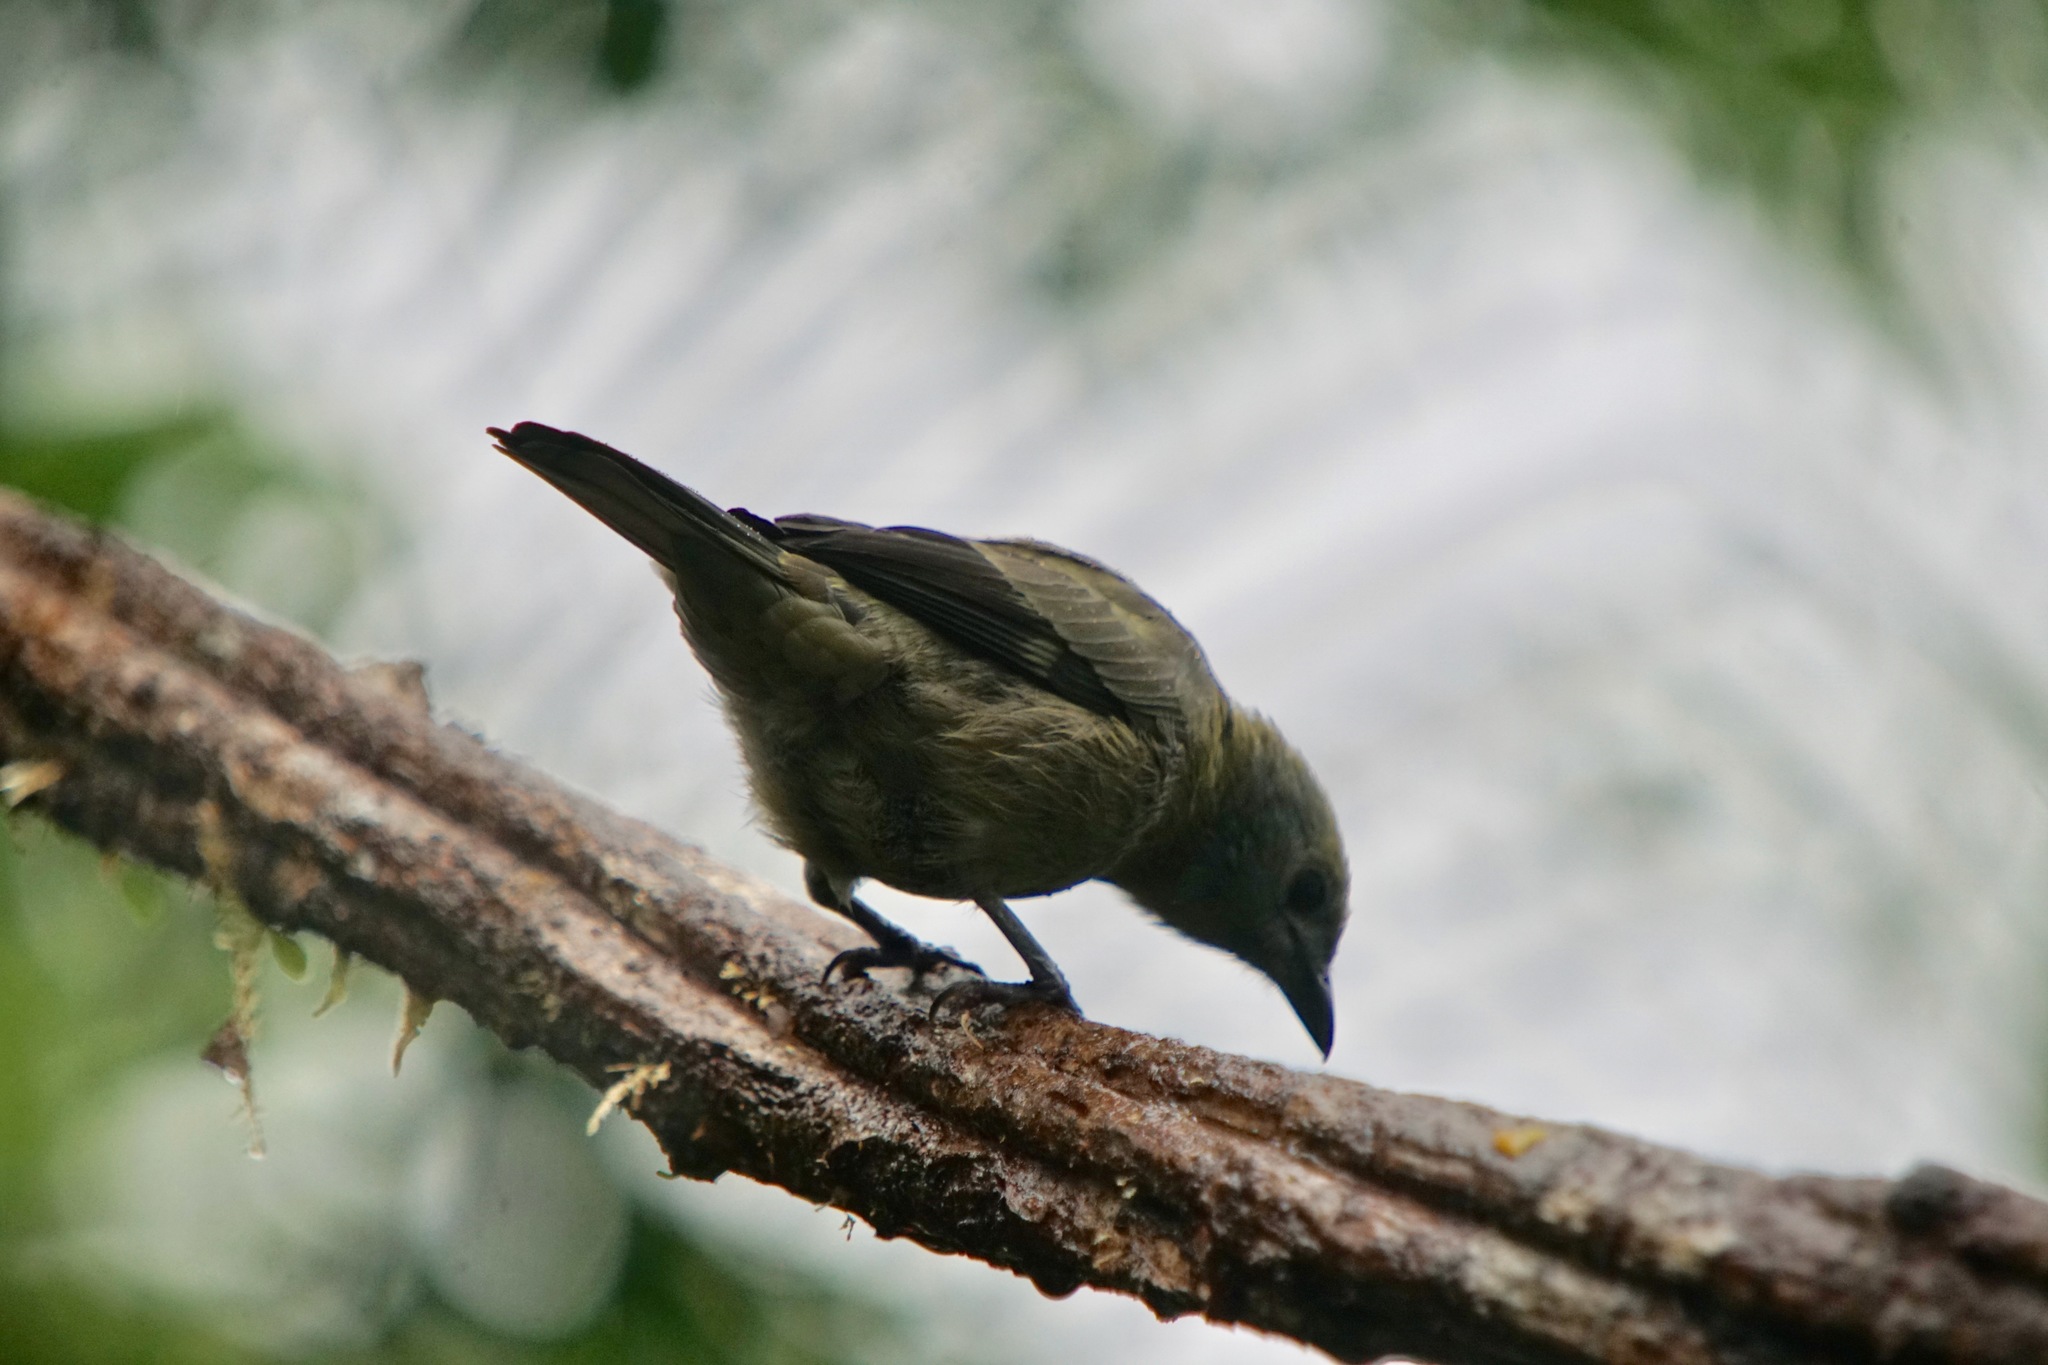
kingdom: Animalia
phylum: Chordata
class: Aves
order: Passeriformes
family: Thraupidae
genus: Thraupis
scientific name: Thraupis palmarum
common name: Palm tanager
